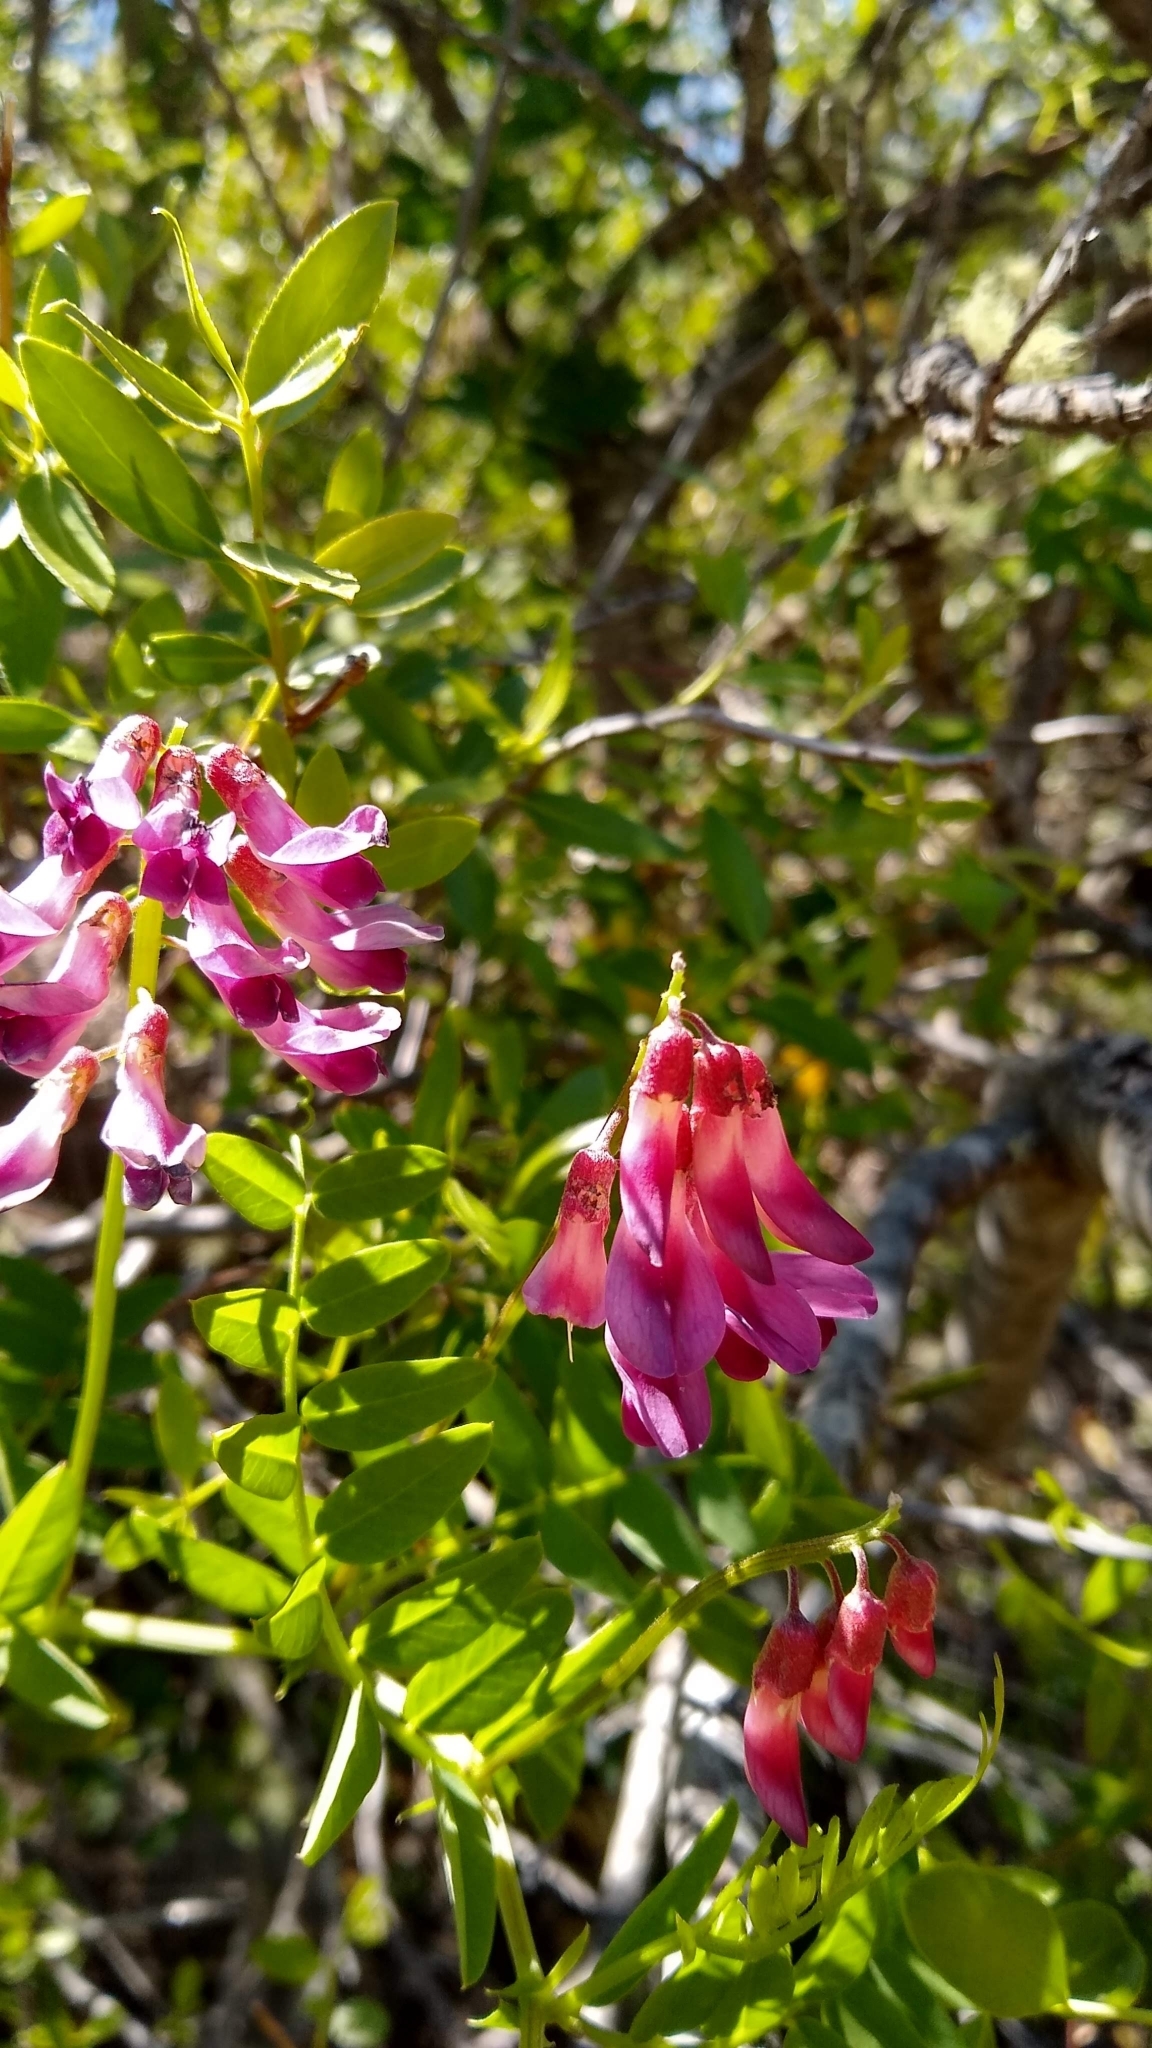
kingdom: Plantae
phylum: Tracheophyta
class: Magnoliopsida
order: Fabales
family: Fabaceae
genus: Vicia
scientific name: Vicia nigricans
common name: Black vetch
